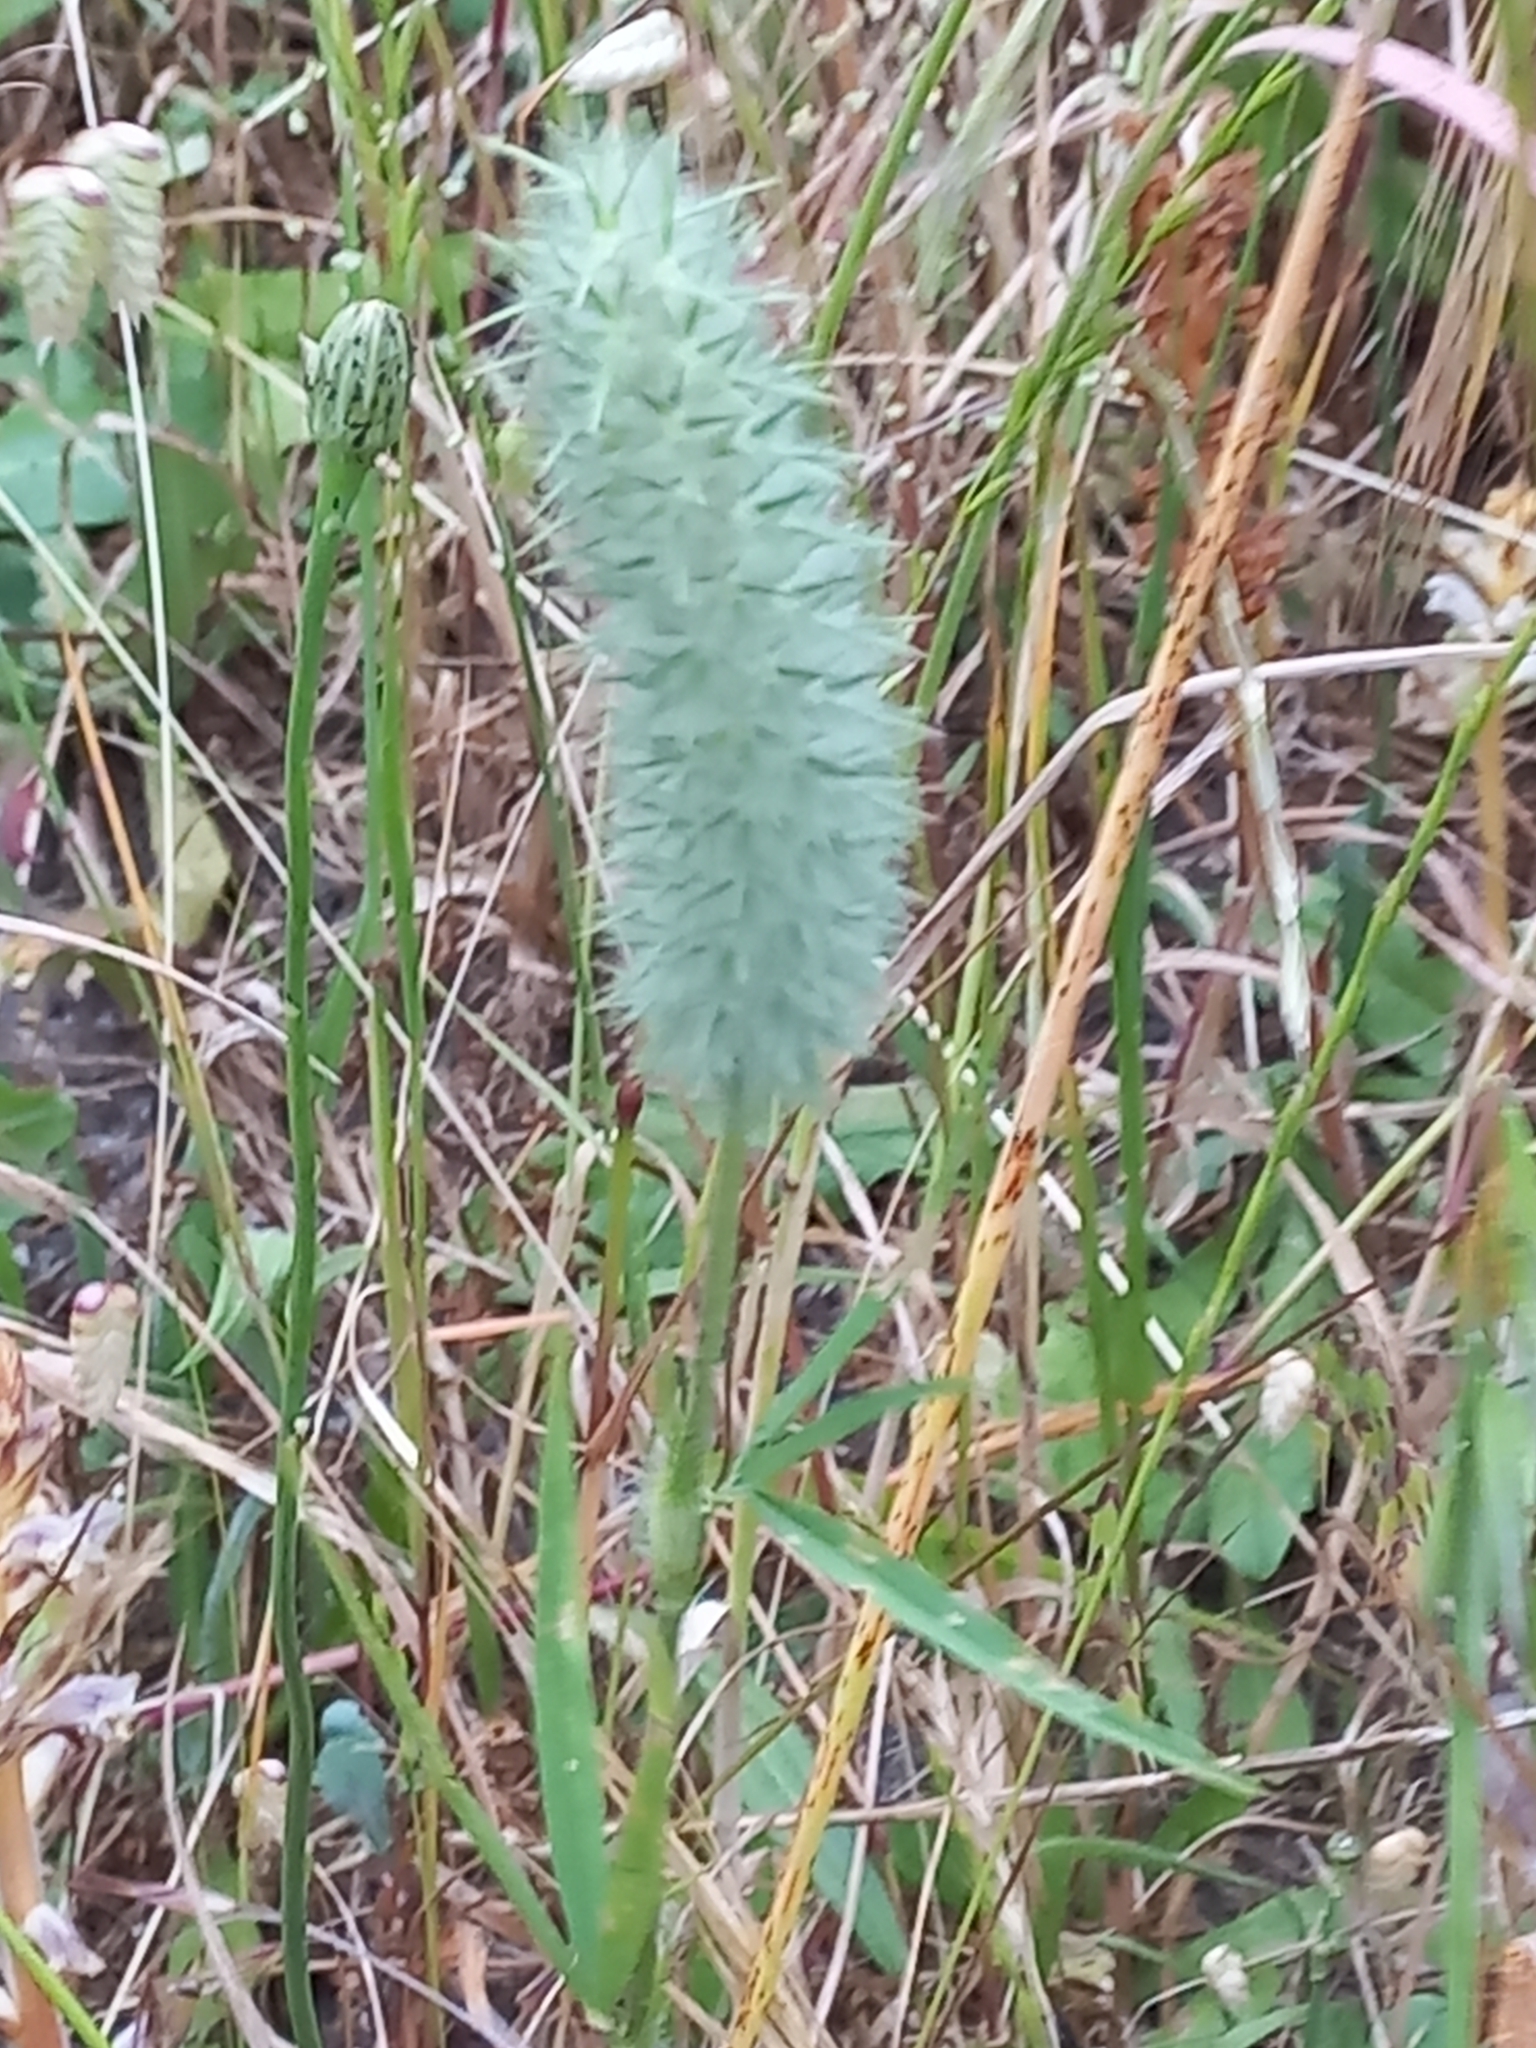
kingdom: Plantae
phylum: Tracheophyta
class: Magnoliopsida
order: Fabales
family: Fabaceae
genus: Trifolium
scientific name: Trifolium angustifolium
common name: Narrow clover
